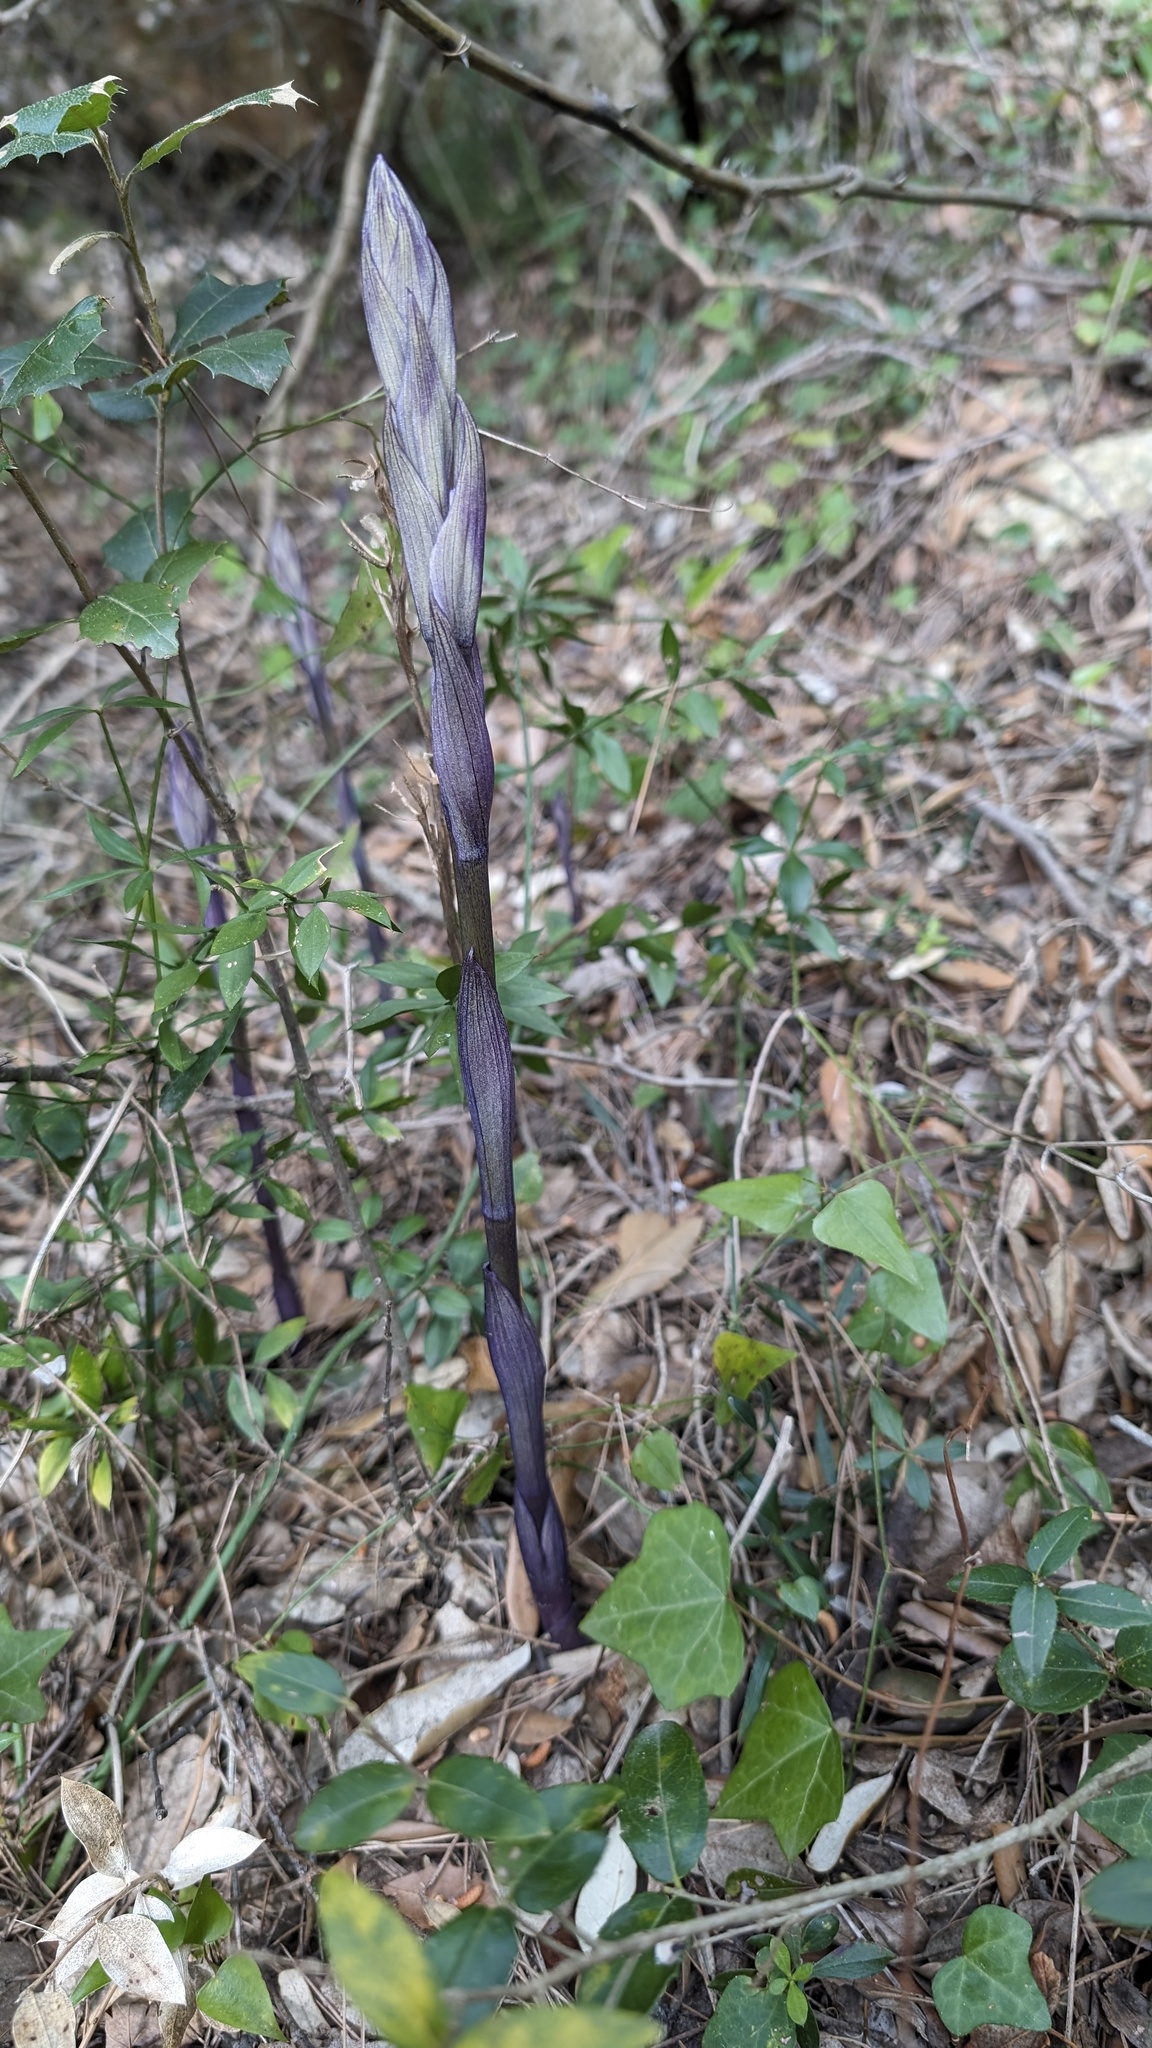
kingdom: Plantae
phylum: Tracheophyta
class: Liliopsida
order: Asparagales
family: Orchidaceae
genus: Limodorum
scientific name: Limodorum abortivum
